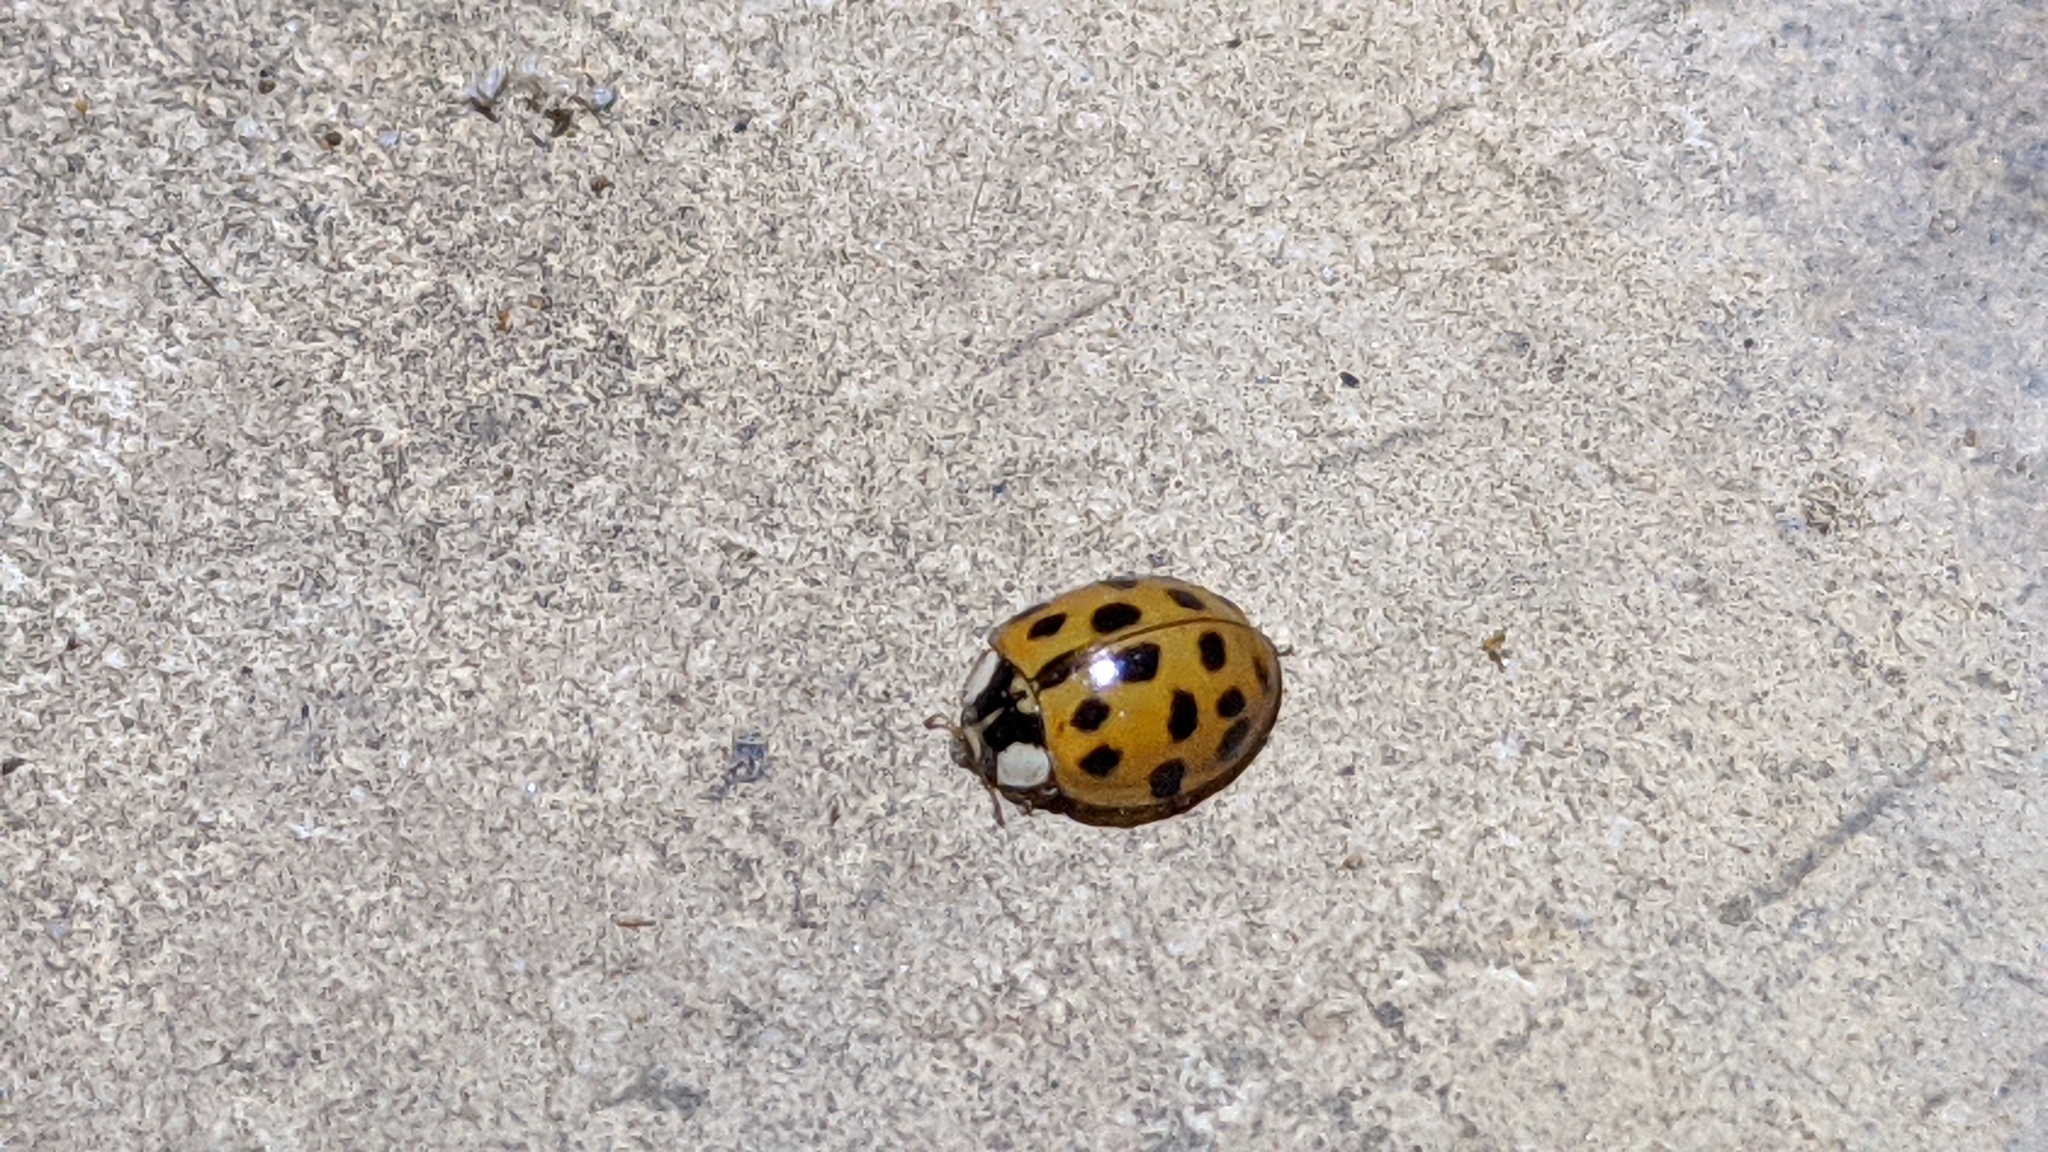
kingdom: Animalia
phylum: Arthropoda
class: Insecta
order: Coleoptera
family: Coccinellidae
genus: Harmonia
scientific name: Harmonia axyridis
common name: Harlequin ladybird
